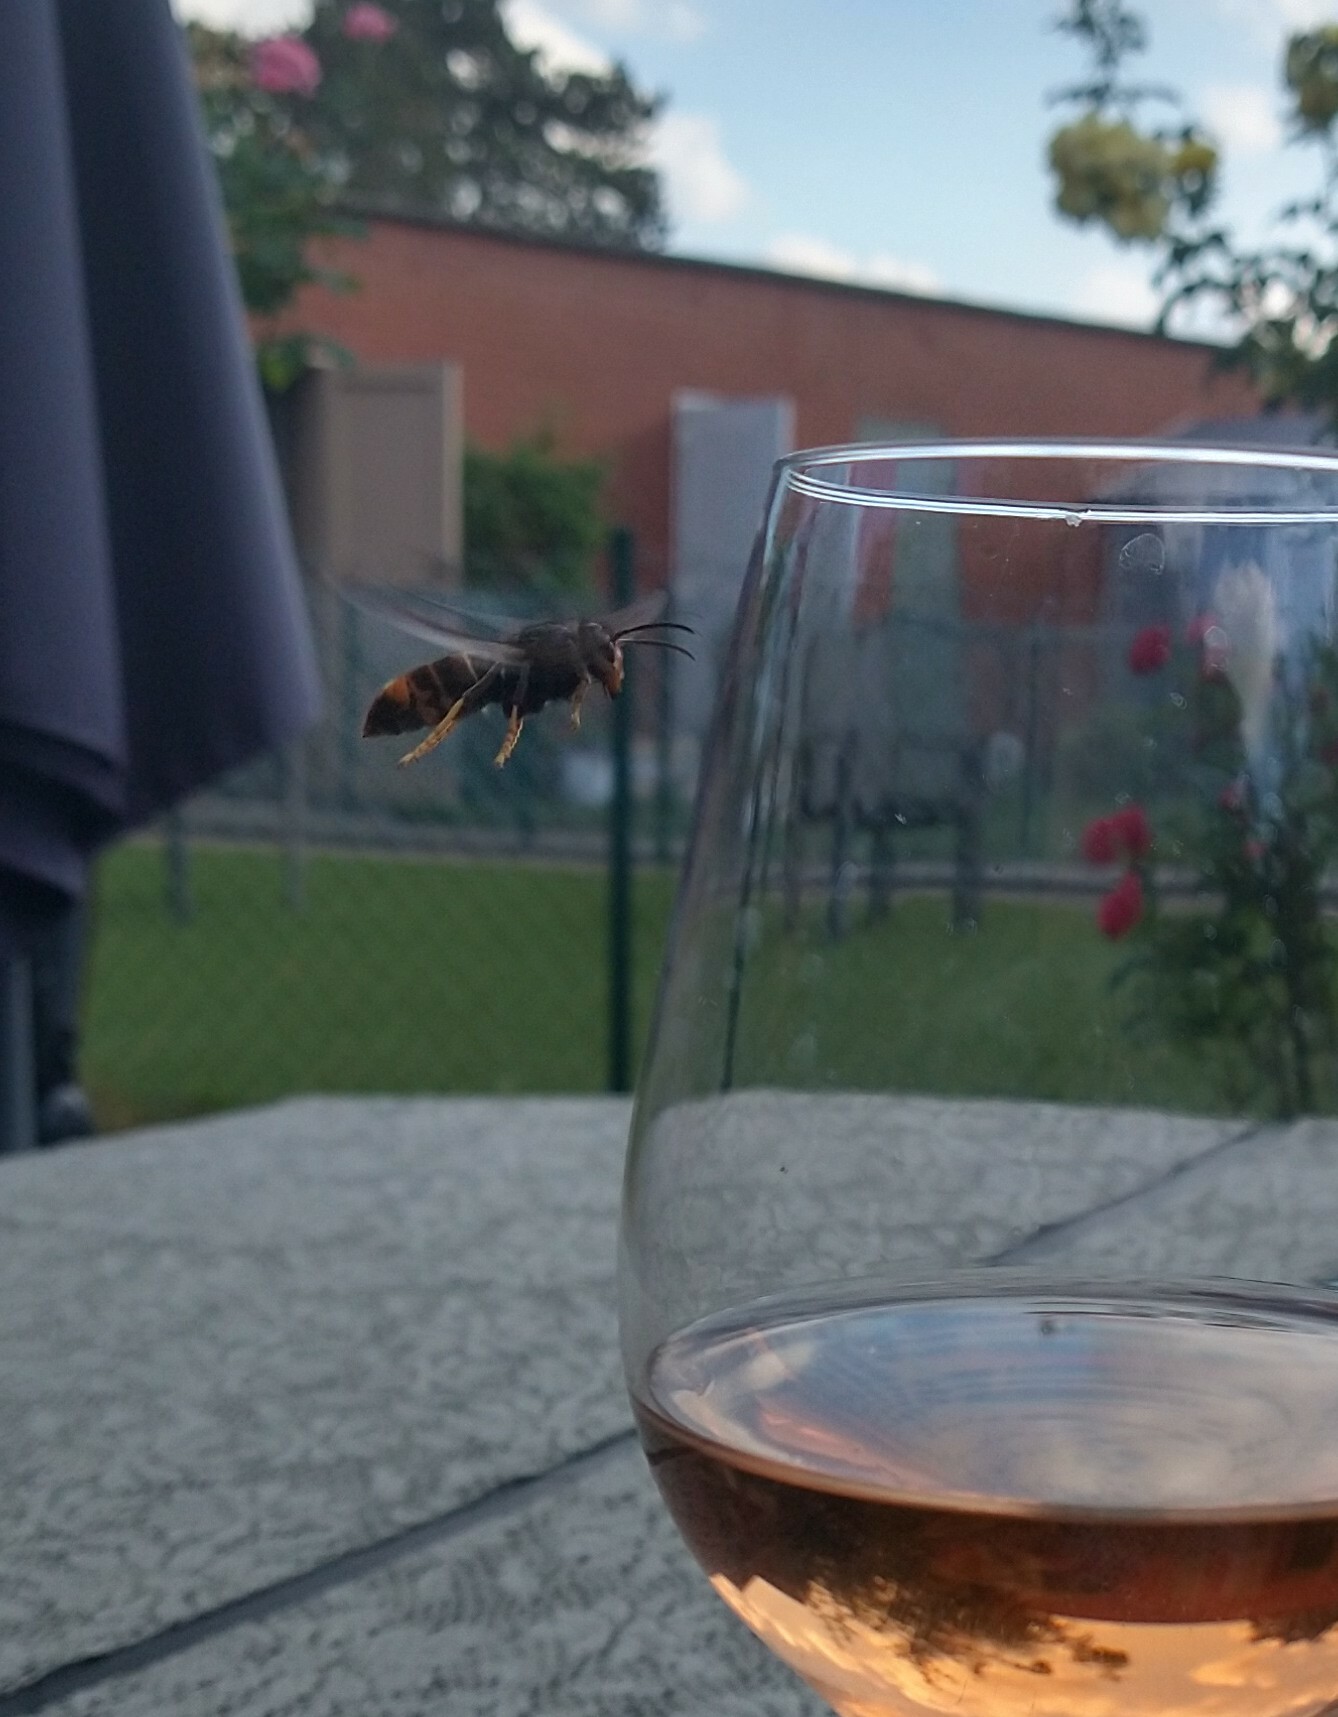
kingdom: Animalia
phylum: Arthropoda
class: Insecta
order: Hymenoptera
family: Vespidae
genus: Vespa
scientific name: Vespa velutina
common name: Asian hornet
